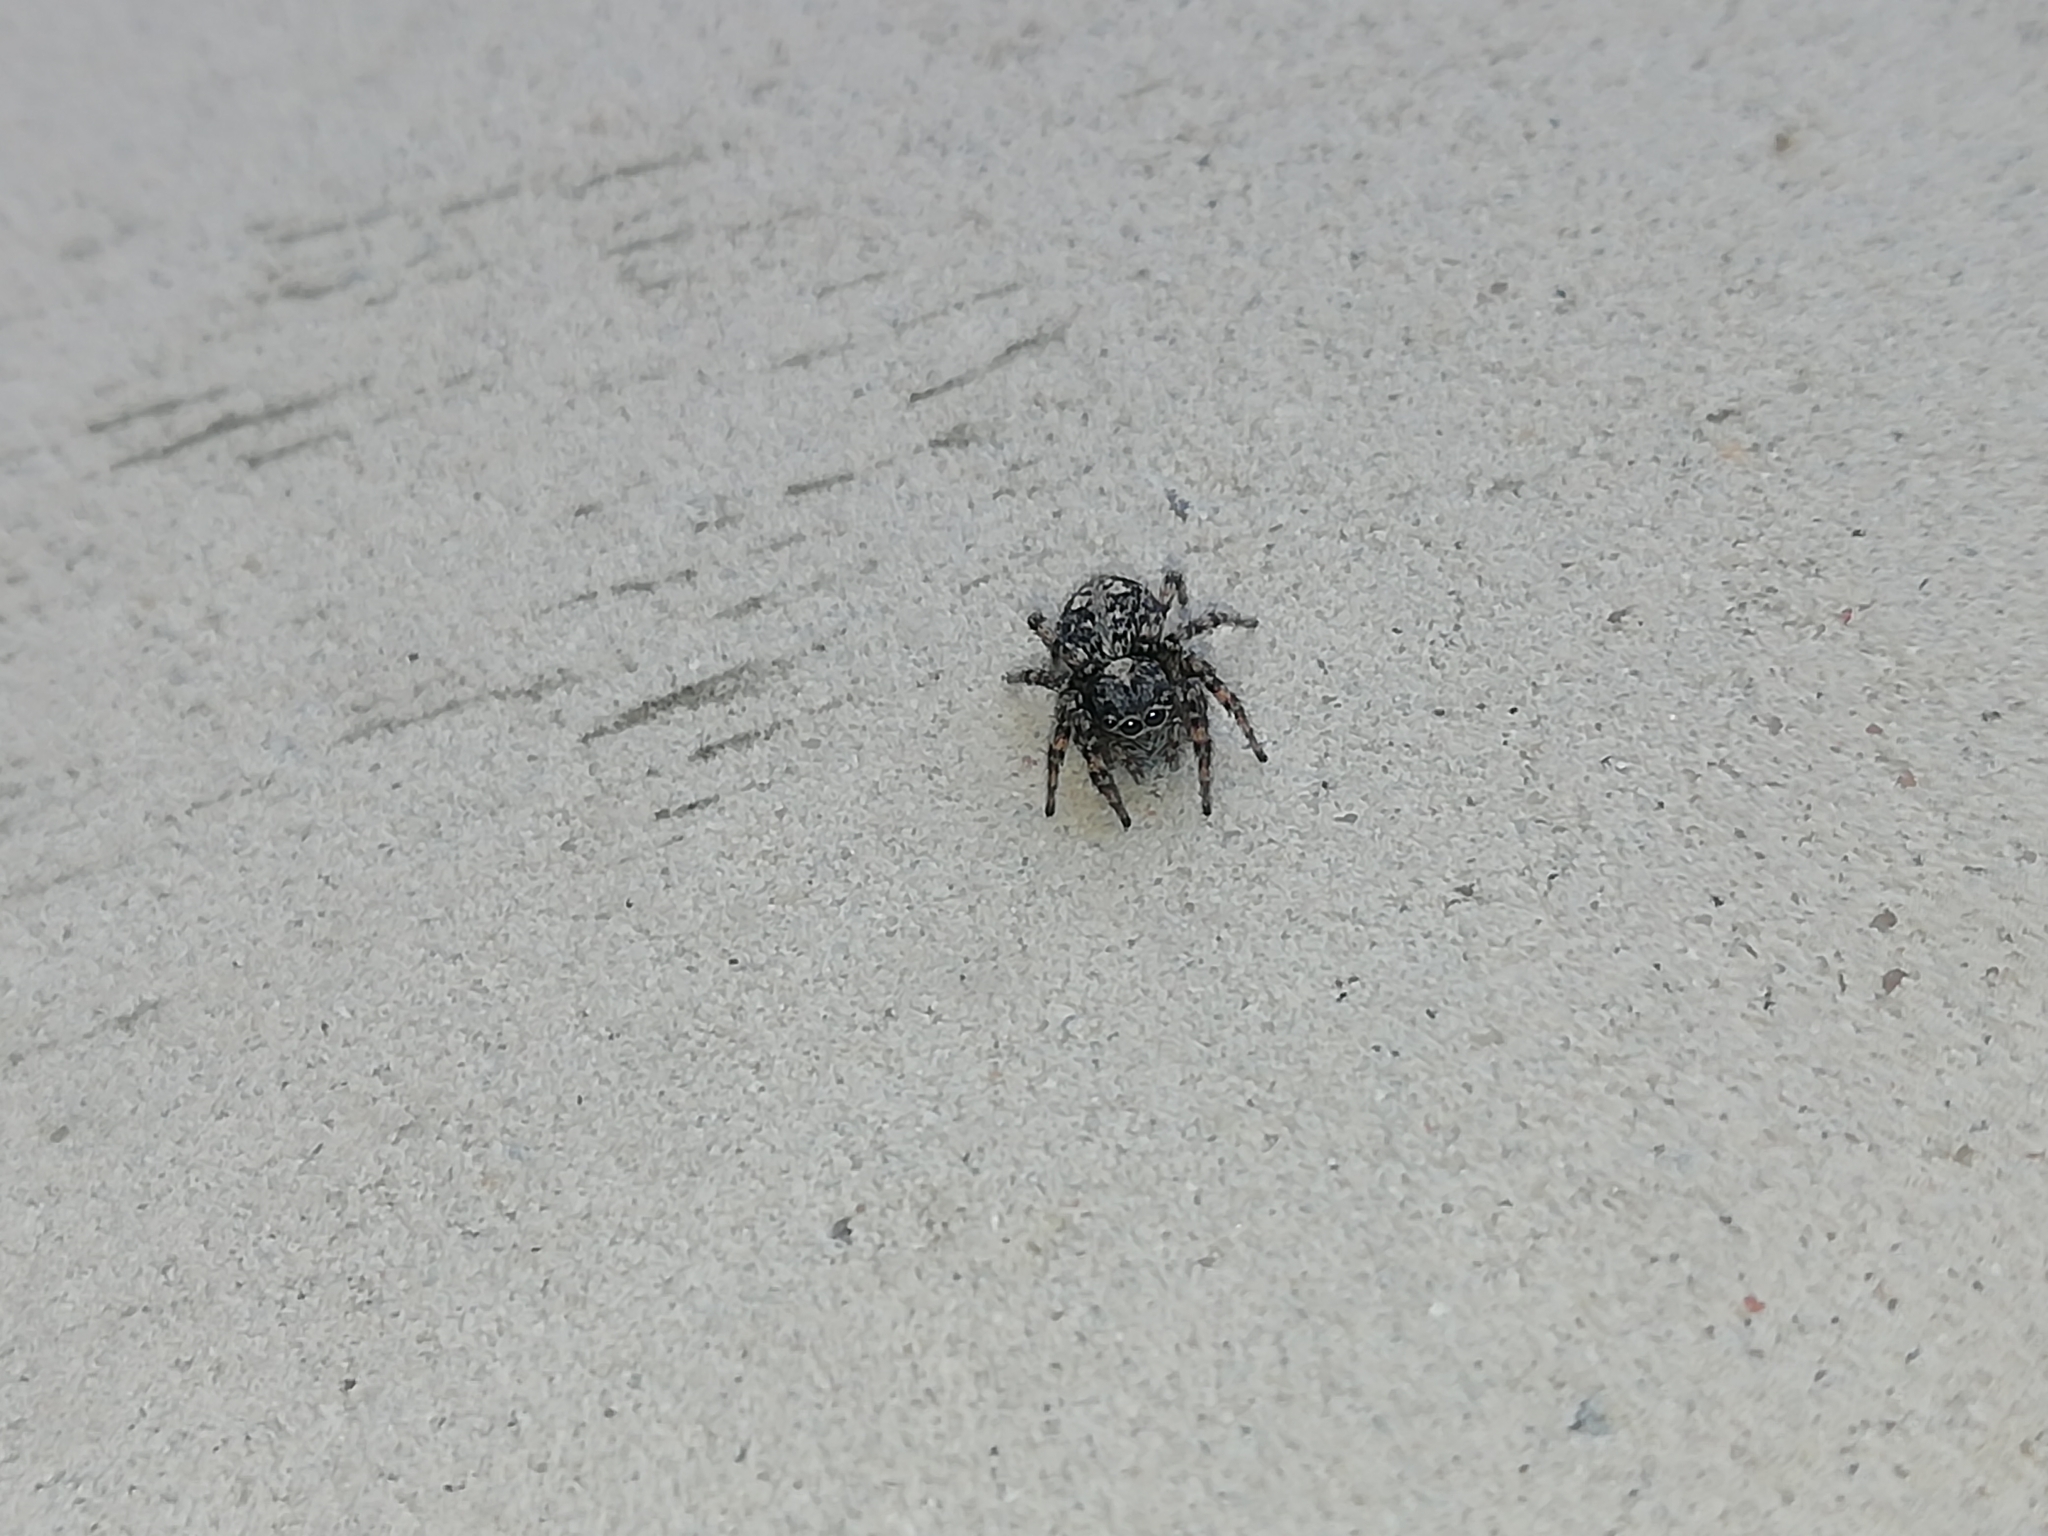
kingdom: Animalia
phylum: Arthropoda
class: Arachnida
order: Araneae
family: Salticidae
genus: Attulus
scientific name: Attulus terebratus
